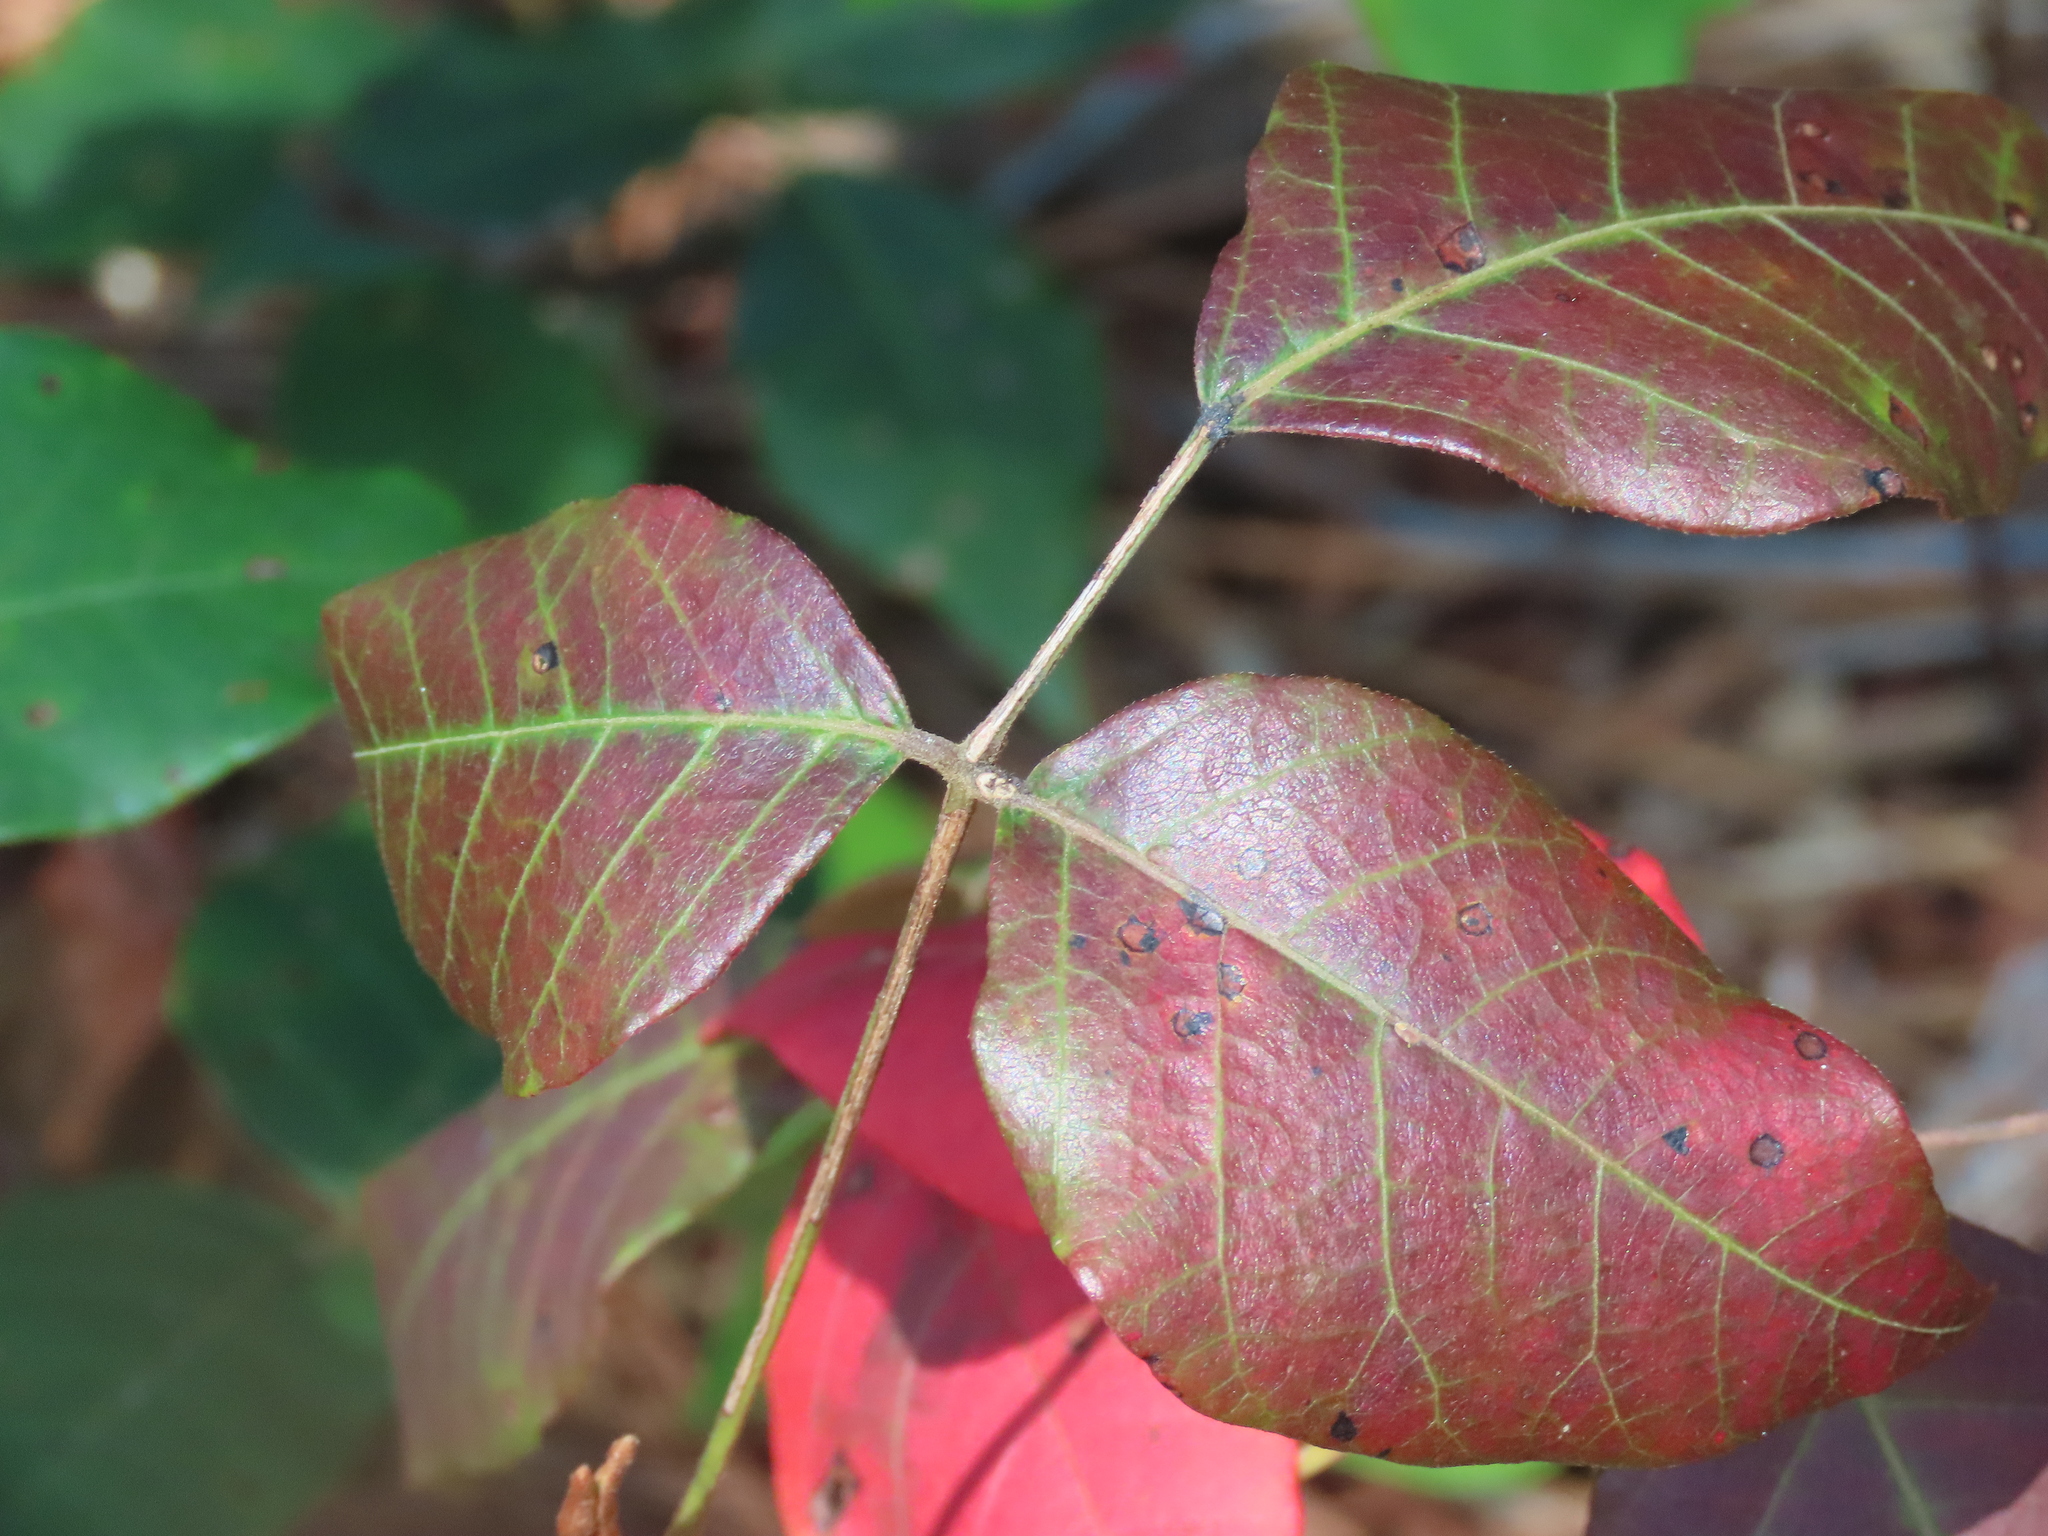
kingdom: Plantae
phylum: Tracheophyta
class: Magnoliopsida
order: Sapindales
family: Anacardiaceae
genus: Toxicodendron
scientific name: Toxicodendron radicans
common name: Poison ivy
